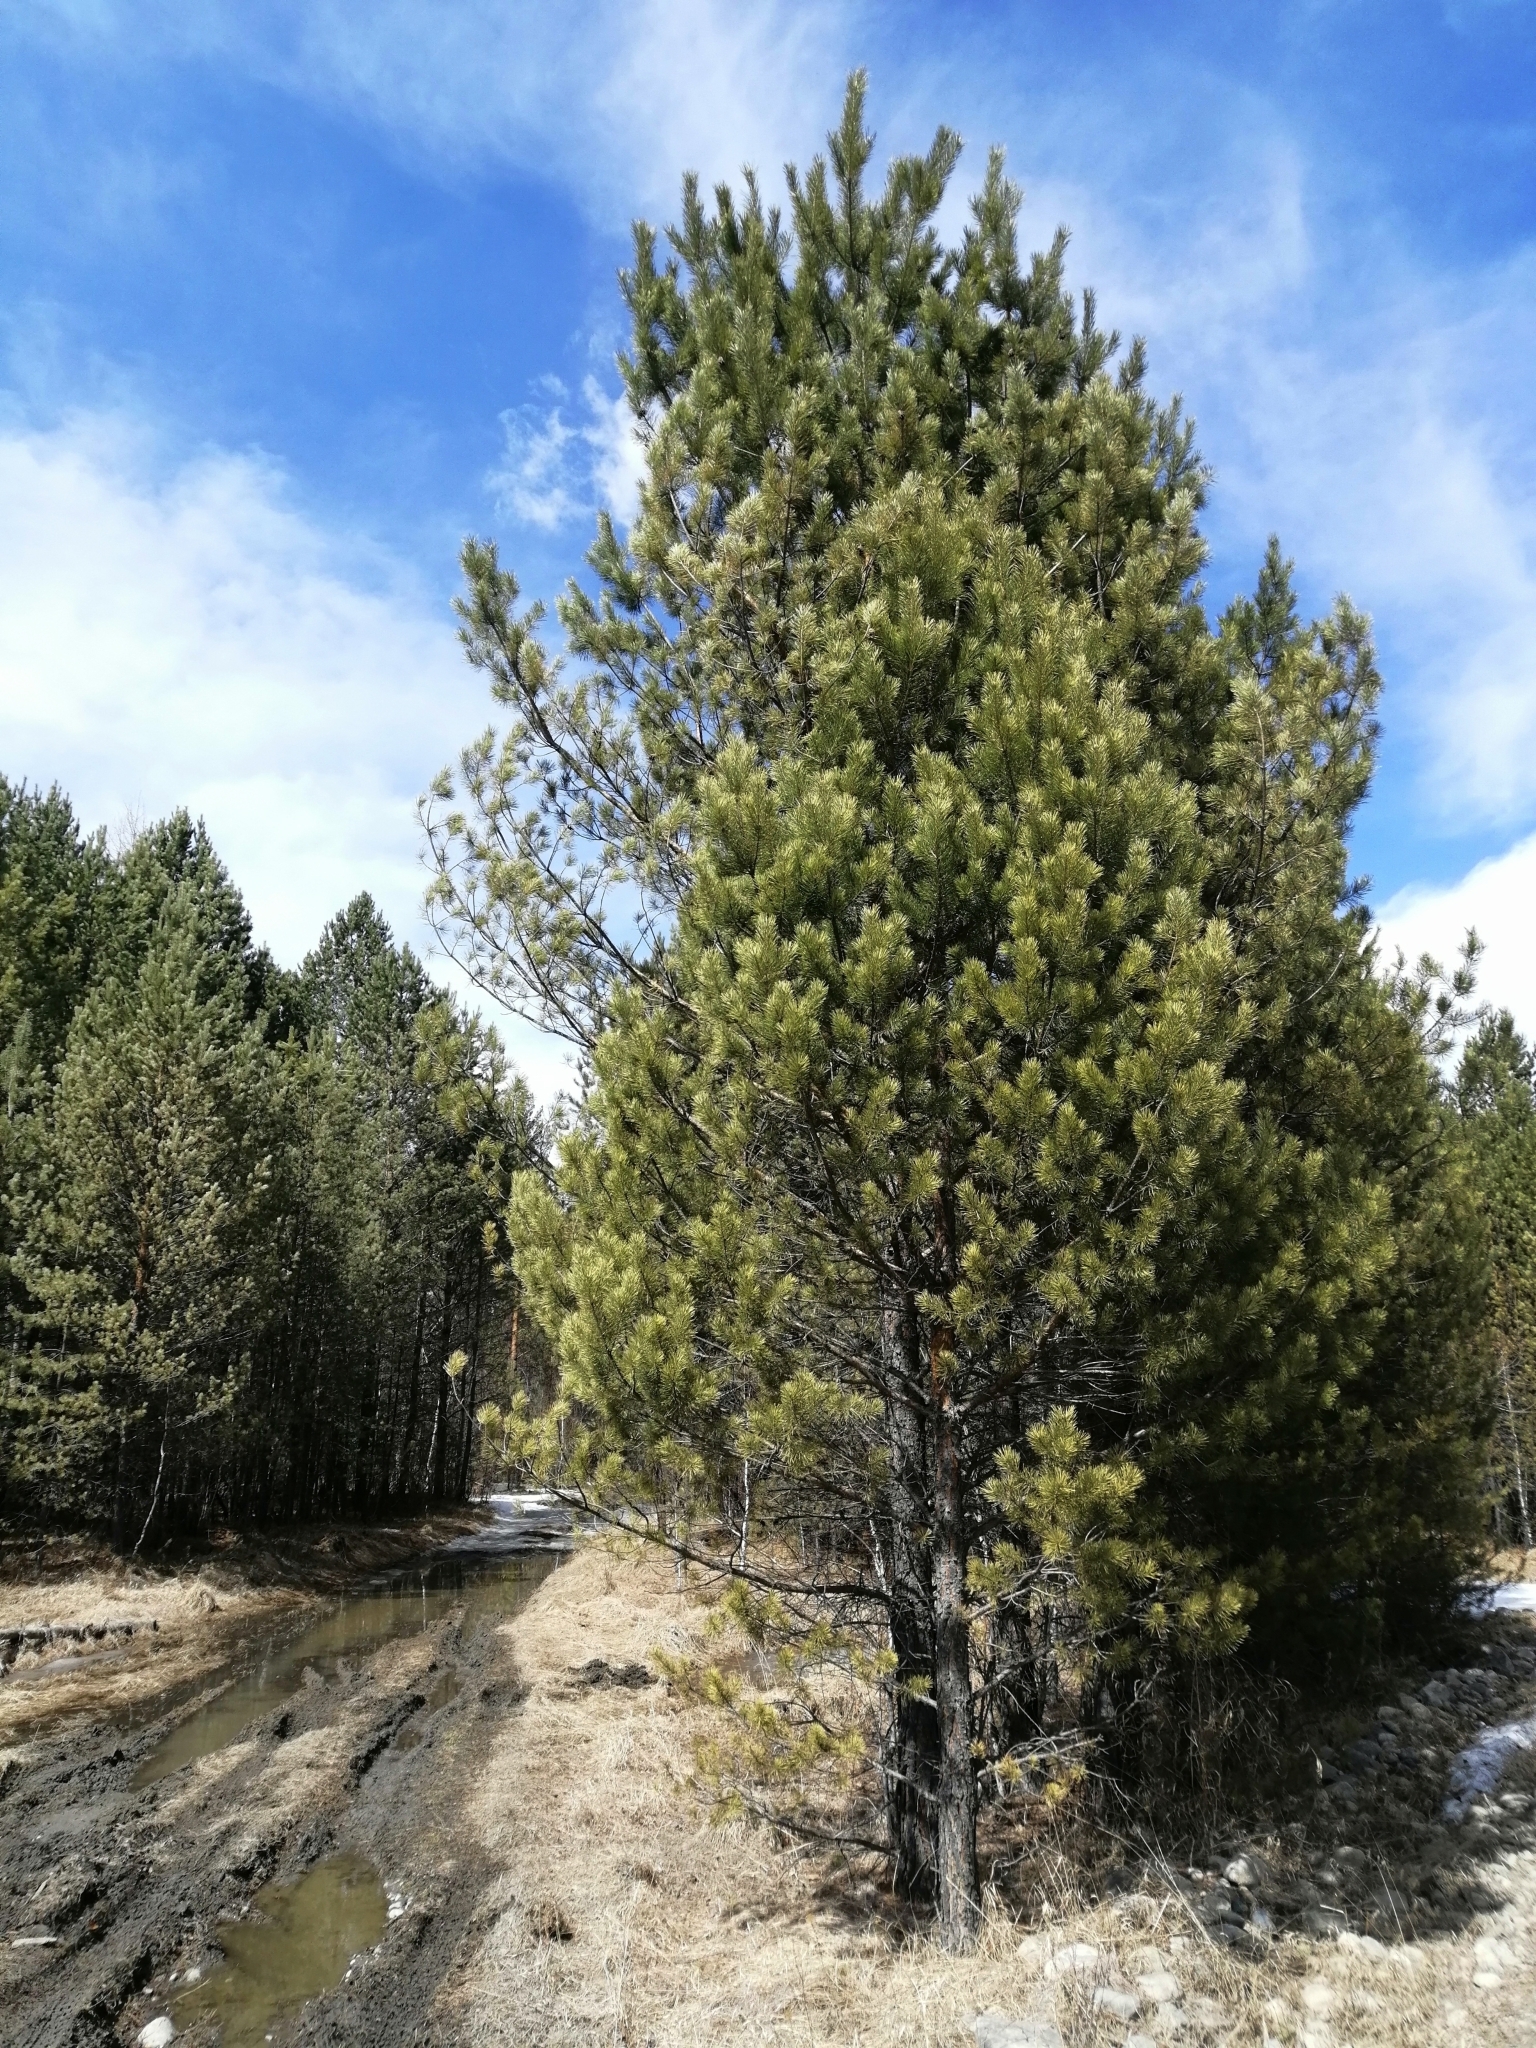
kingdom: Plantae
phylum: Tracheophyta
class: Pinopsida
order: Pinales
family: Pinaceae
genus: Pinus
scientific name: Pinus sylvestris
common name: Scots pine
